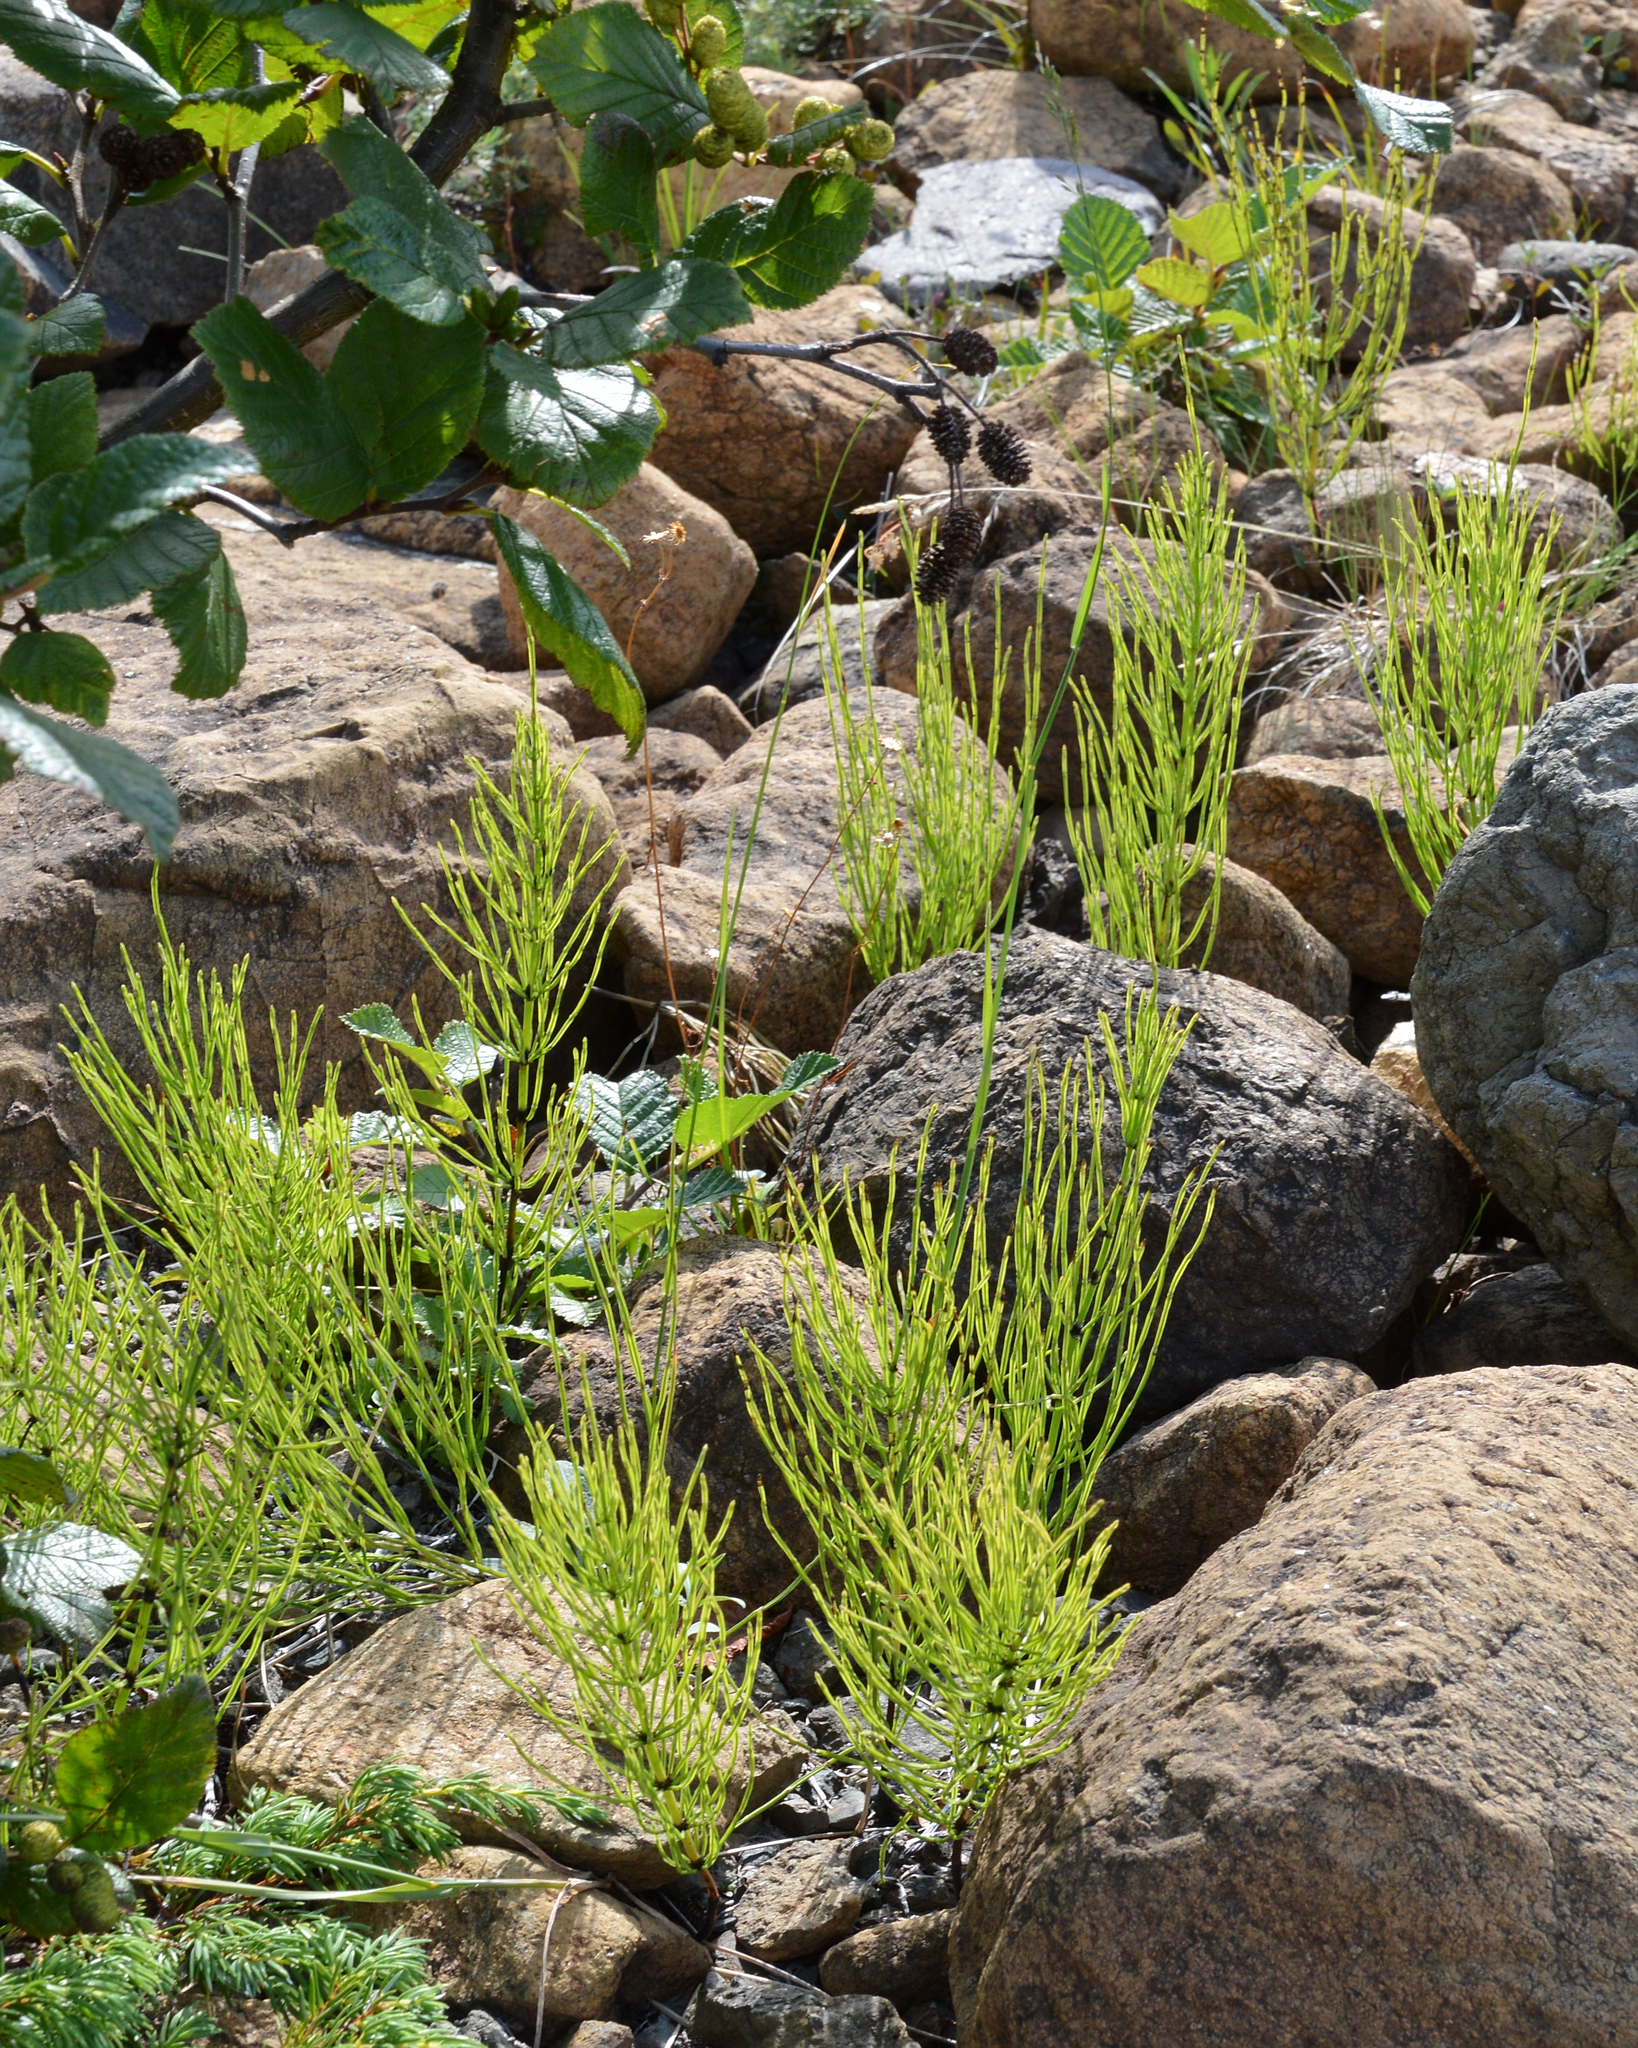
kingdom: Plantae
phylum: Tracheophyta
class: Polypodiopsida
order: Equisetales
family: Equisetaceae
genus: Equisetum
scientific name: Equisetum arvense
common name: Field horsetail
